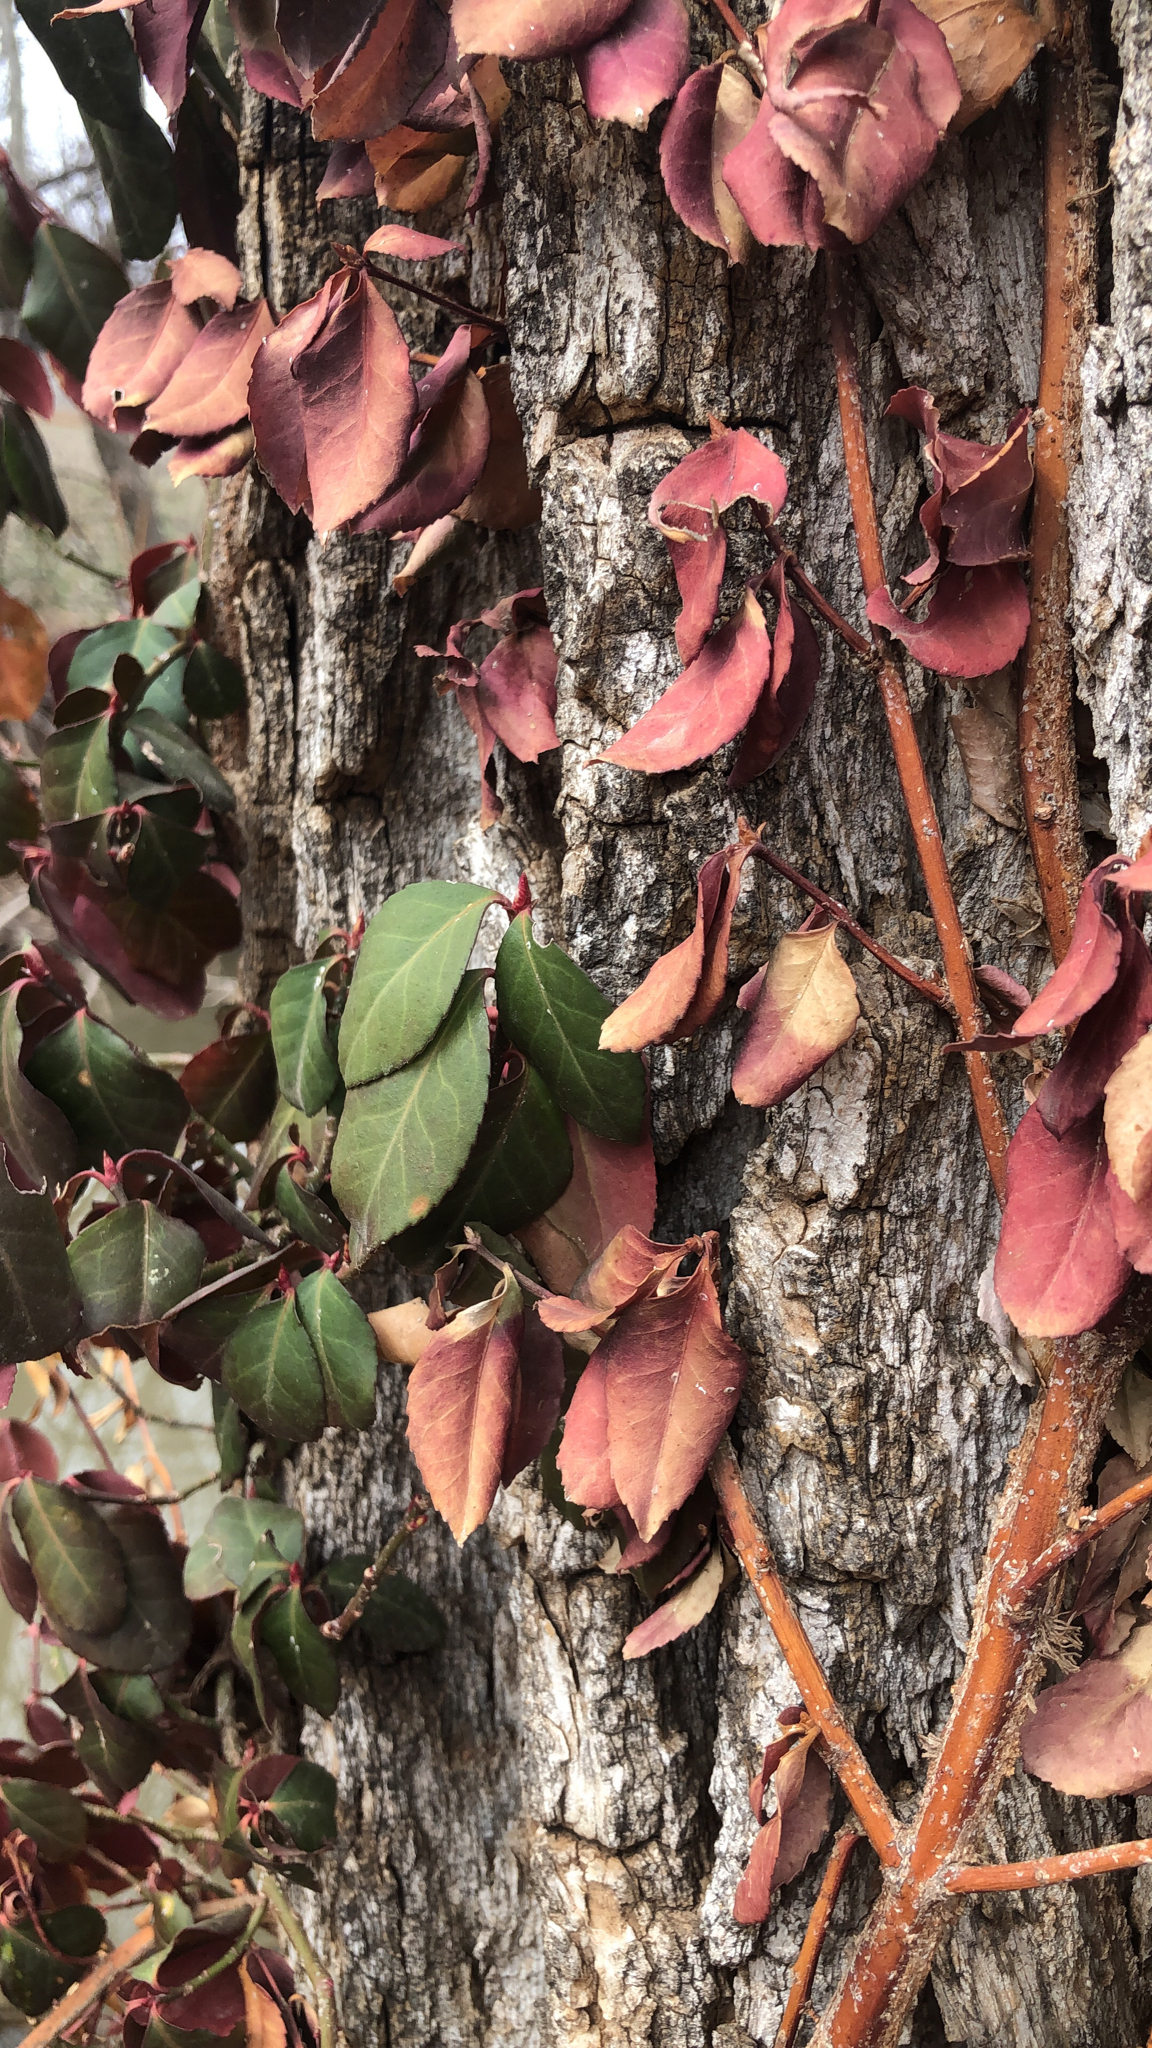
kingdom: Plantae
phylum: Tracheophyta
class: Magnoliopsida
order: Celastrales
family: Celastraceae
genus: Euonymus
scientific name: Euonymus fortunei
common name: Climbing euonymus
